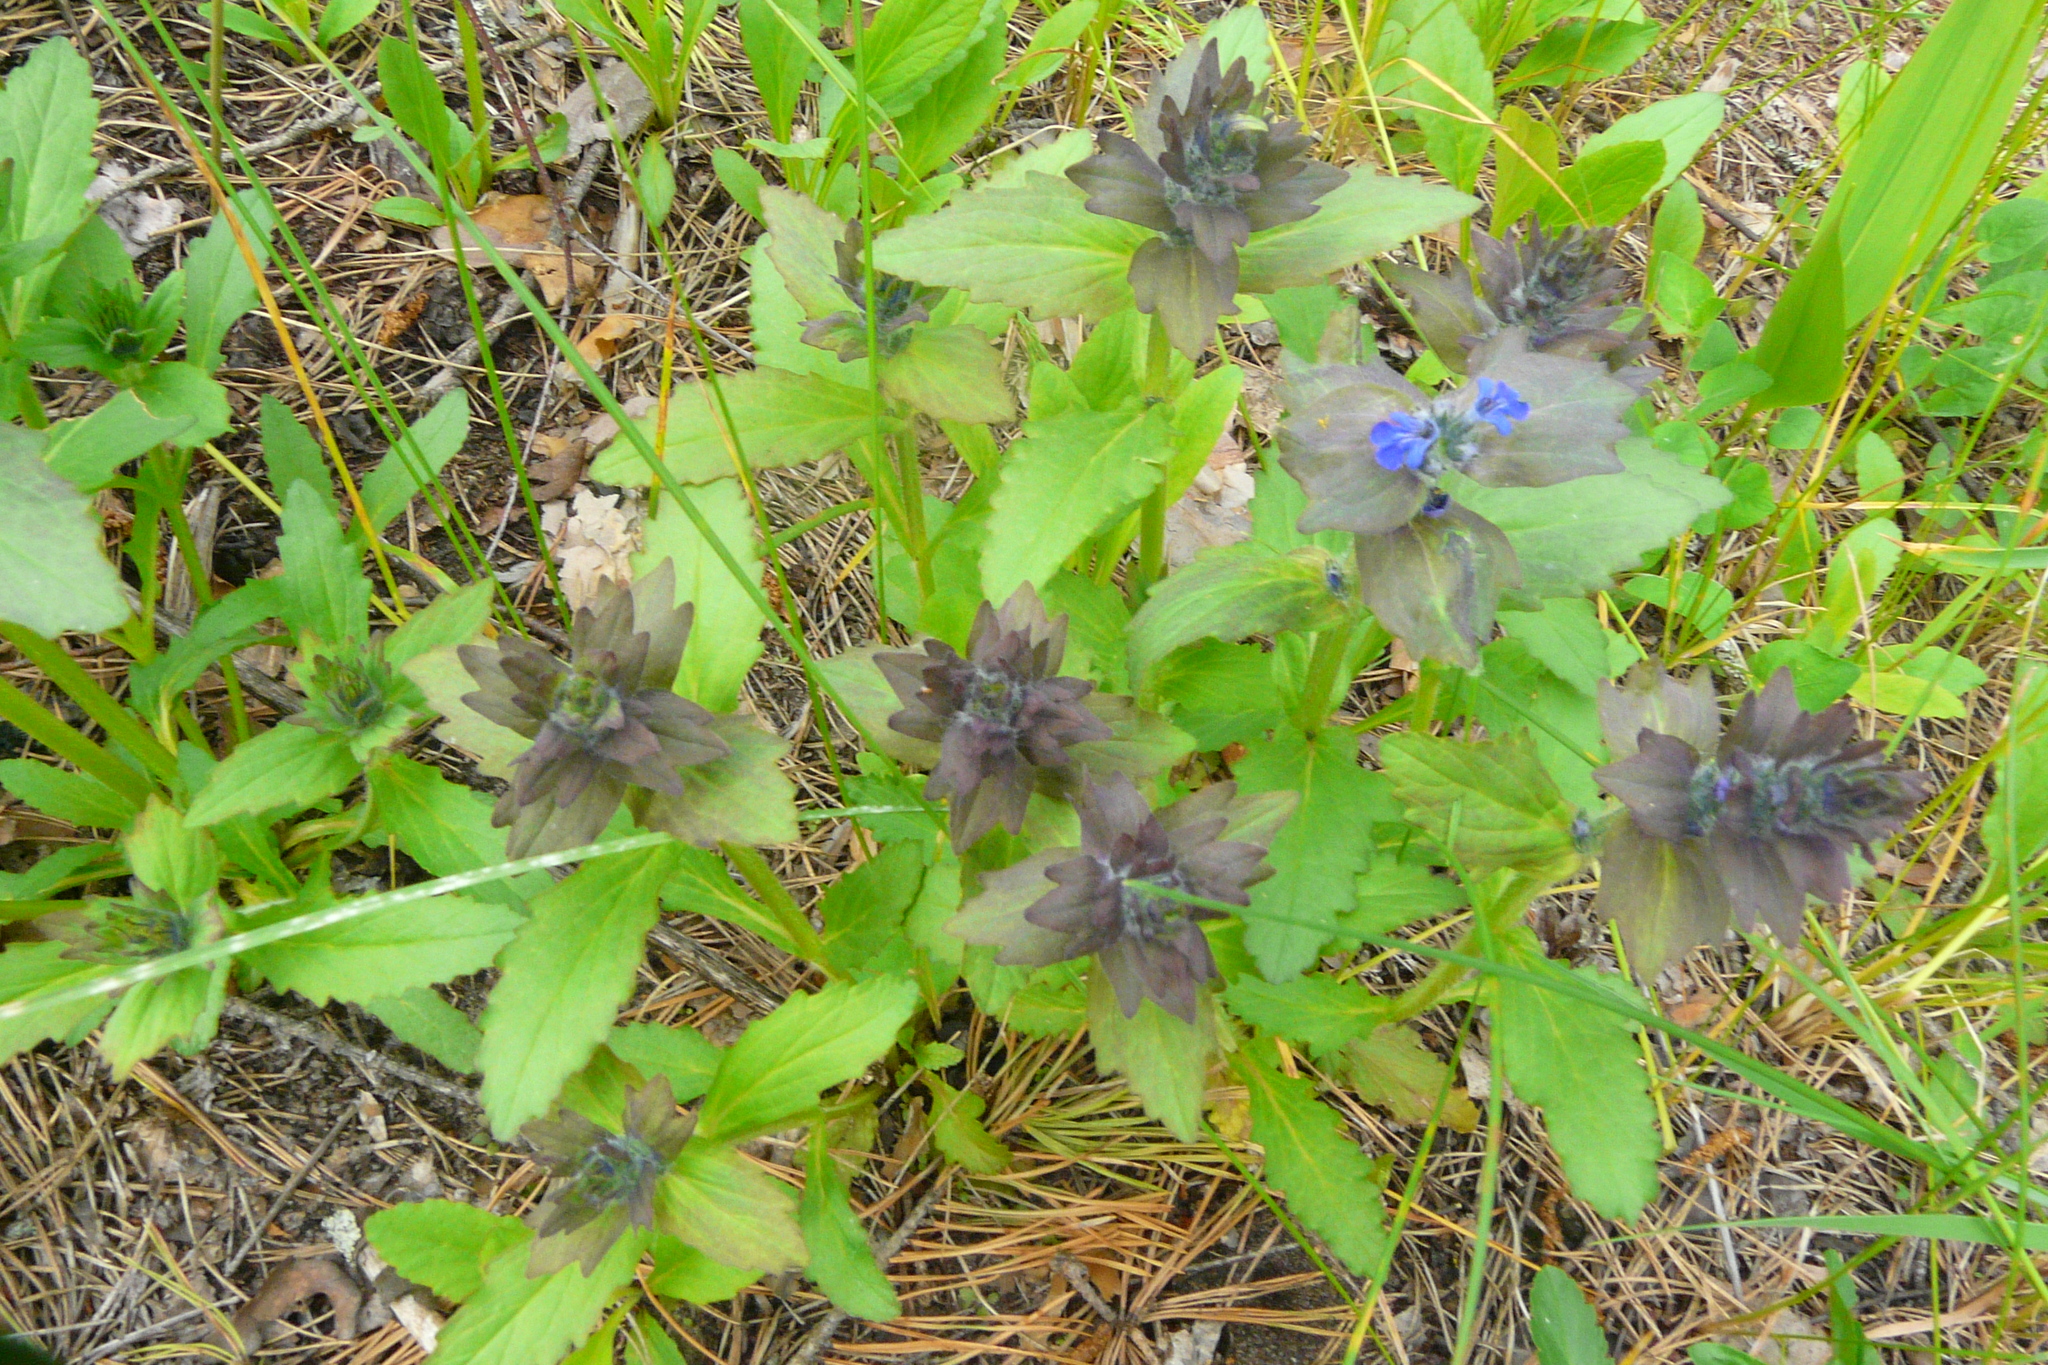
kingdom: Plantae
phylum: Tracheophyta
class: Magnoliopsida
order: Lamiales
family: Lamiaceae
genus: Ajuga
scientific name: Ajuga genevensis
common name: Blue bugle
